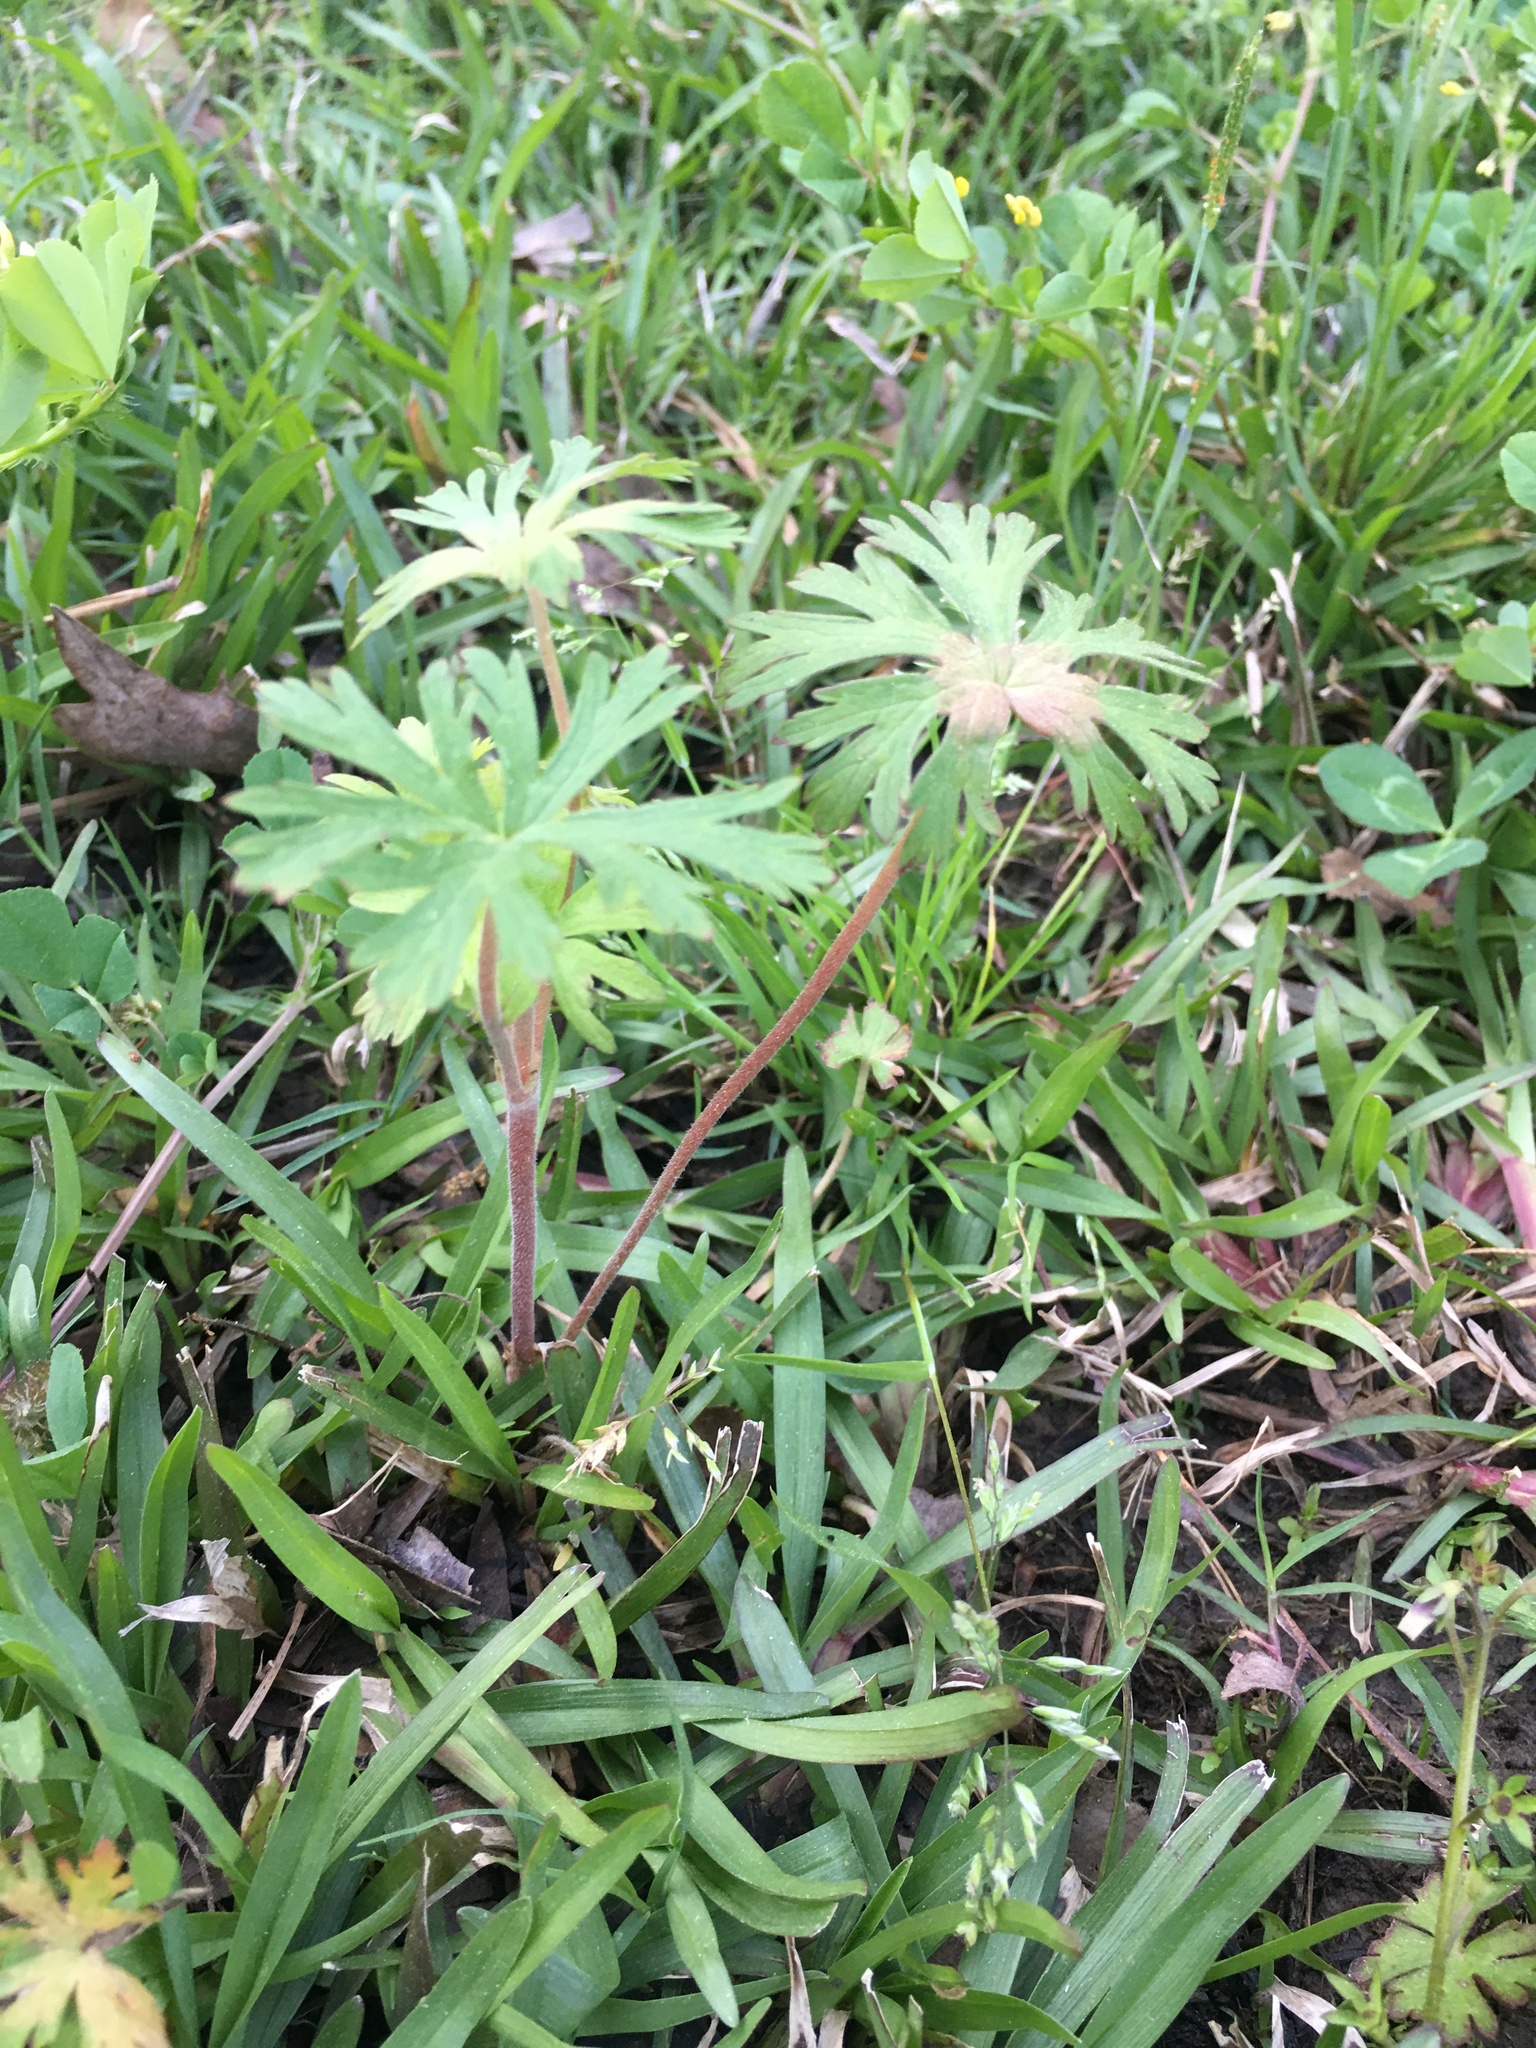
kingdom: Plantae
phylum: Tracheophyta
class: Magnoliopsida
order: Geraniales
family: Geraniaceae
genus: Geranium
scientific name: Geranium carolinianum
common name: Carolina crane's-bill
